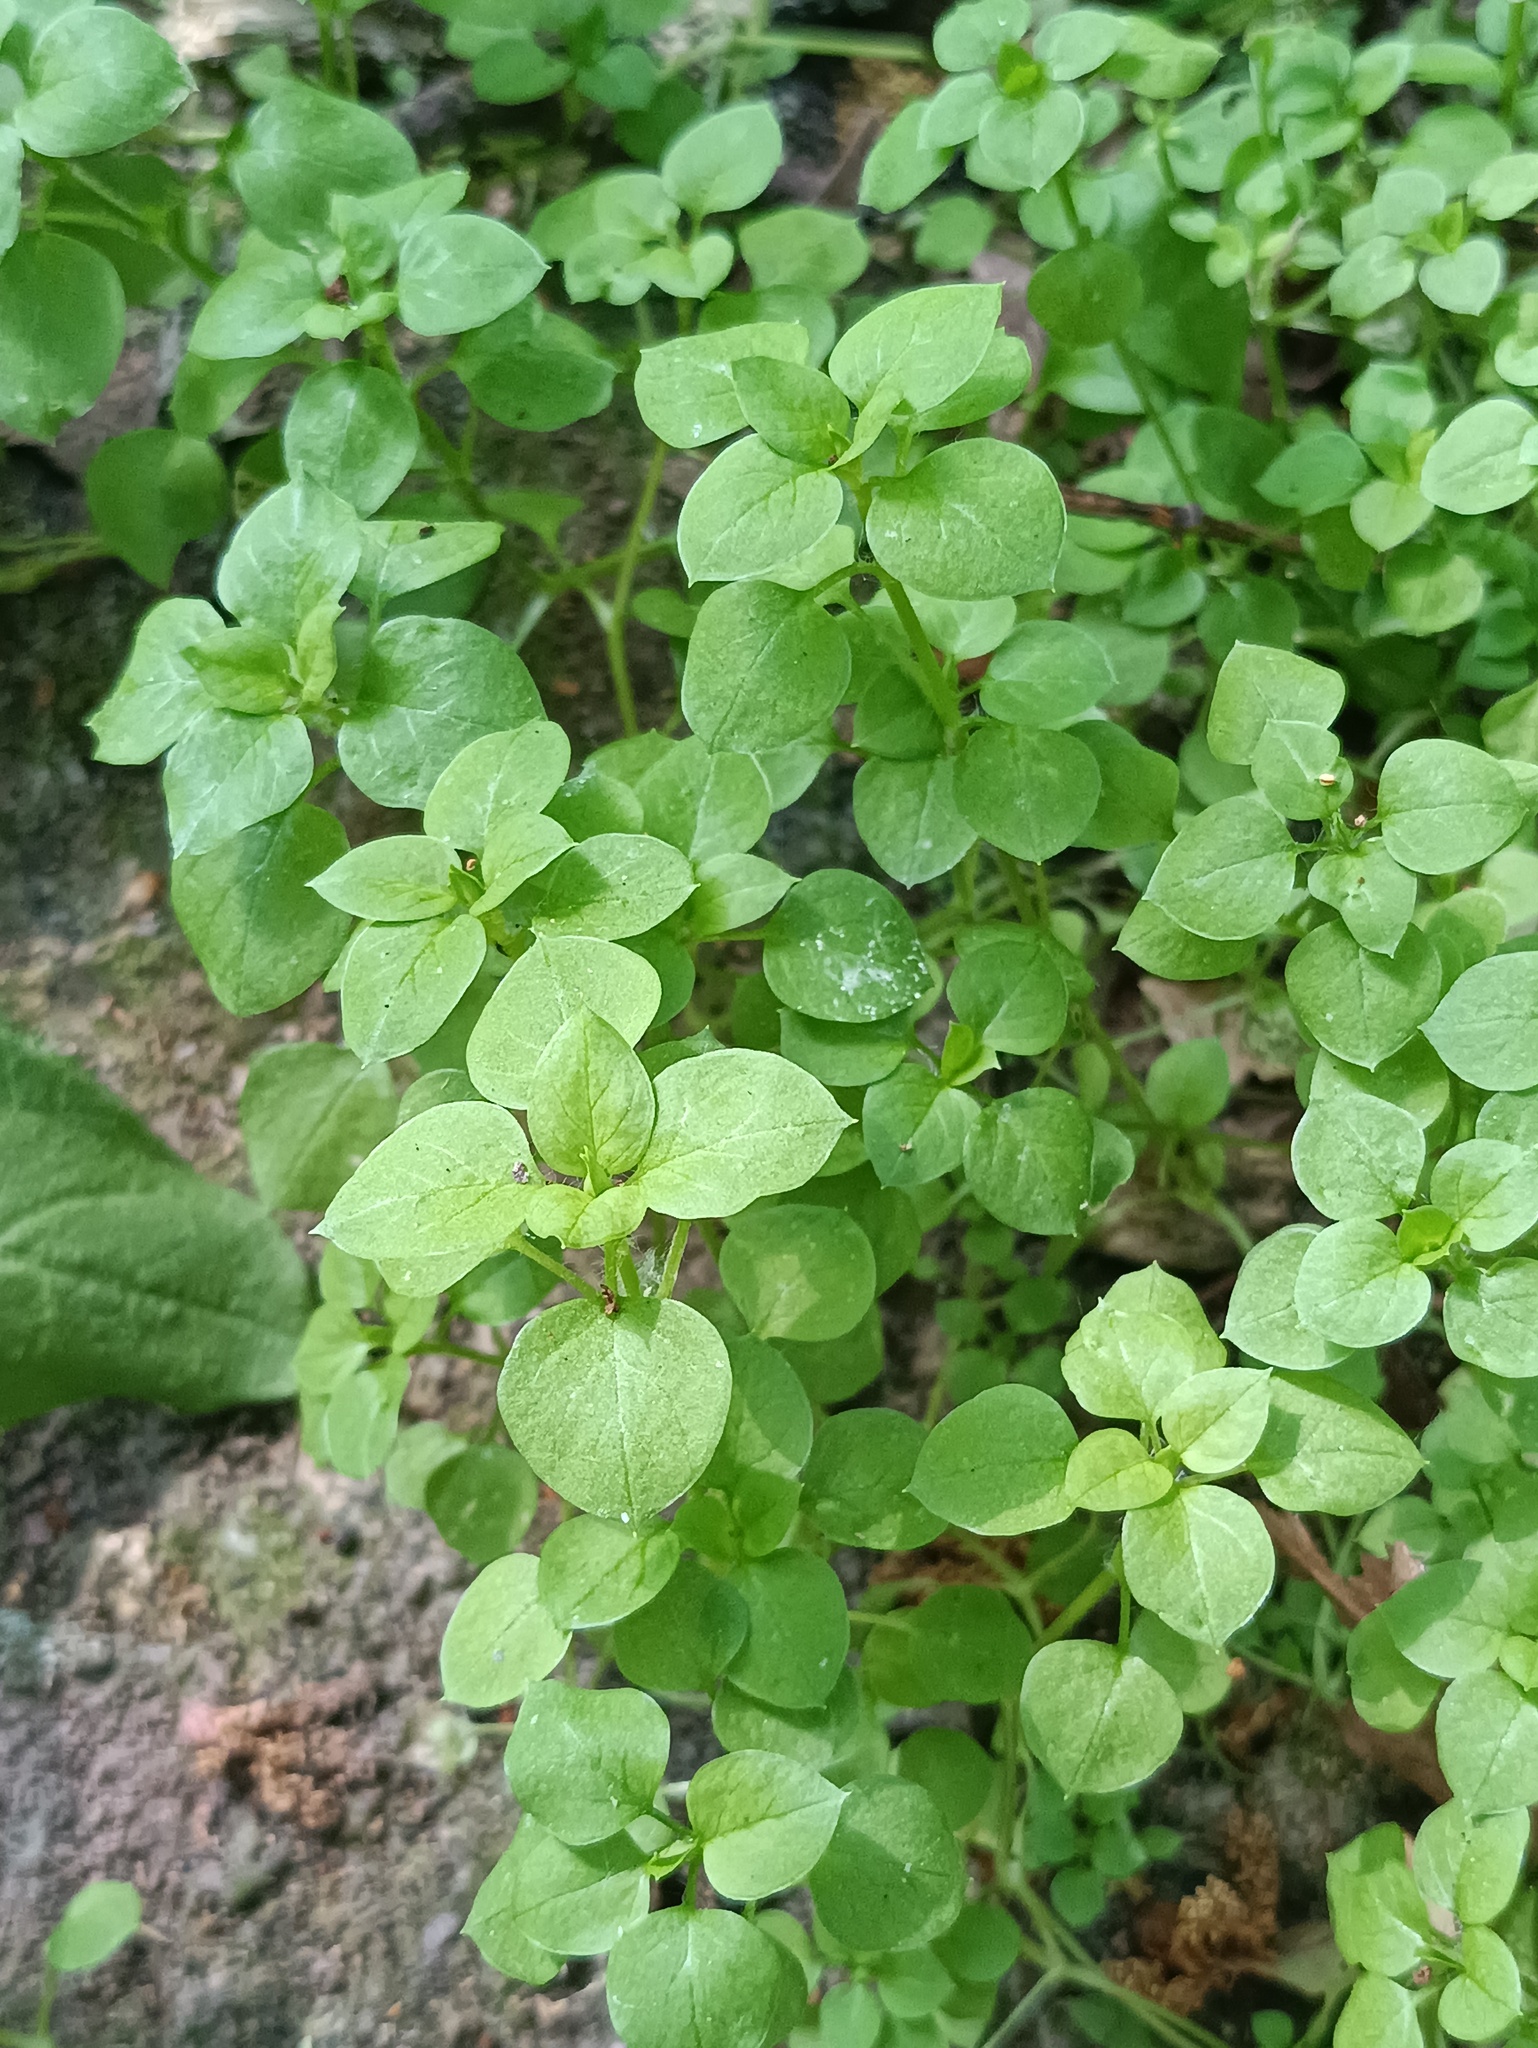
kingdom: Plantae
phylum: Tracheophyta
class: Magnoliopsida
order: Caryophyllales
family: Caryophyllaceae
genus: Stellaria
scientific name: Stellaria media
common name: Common chickweed
